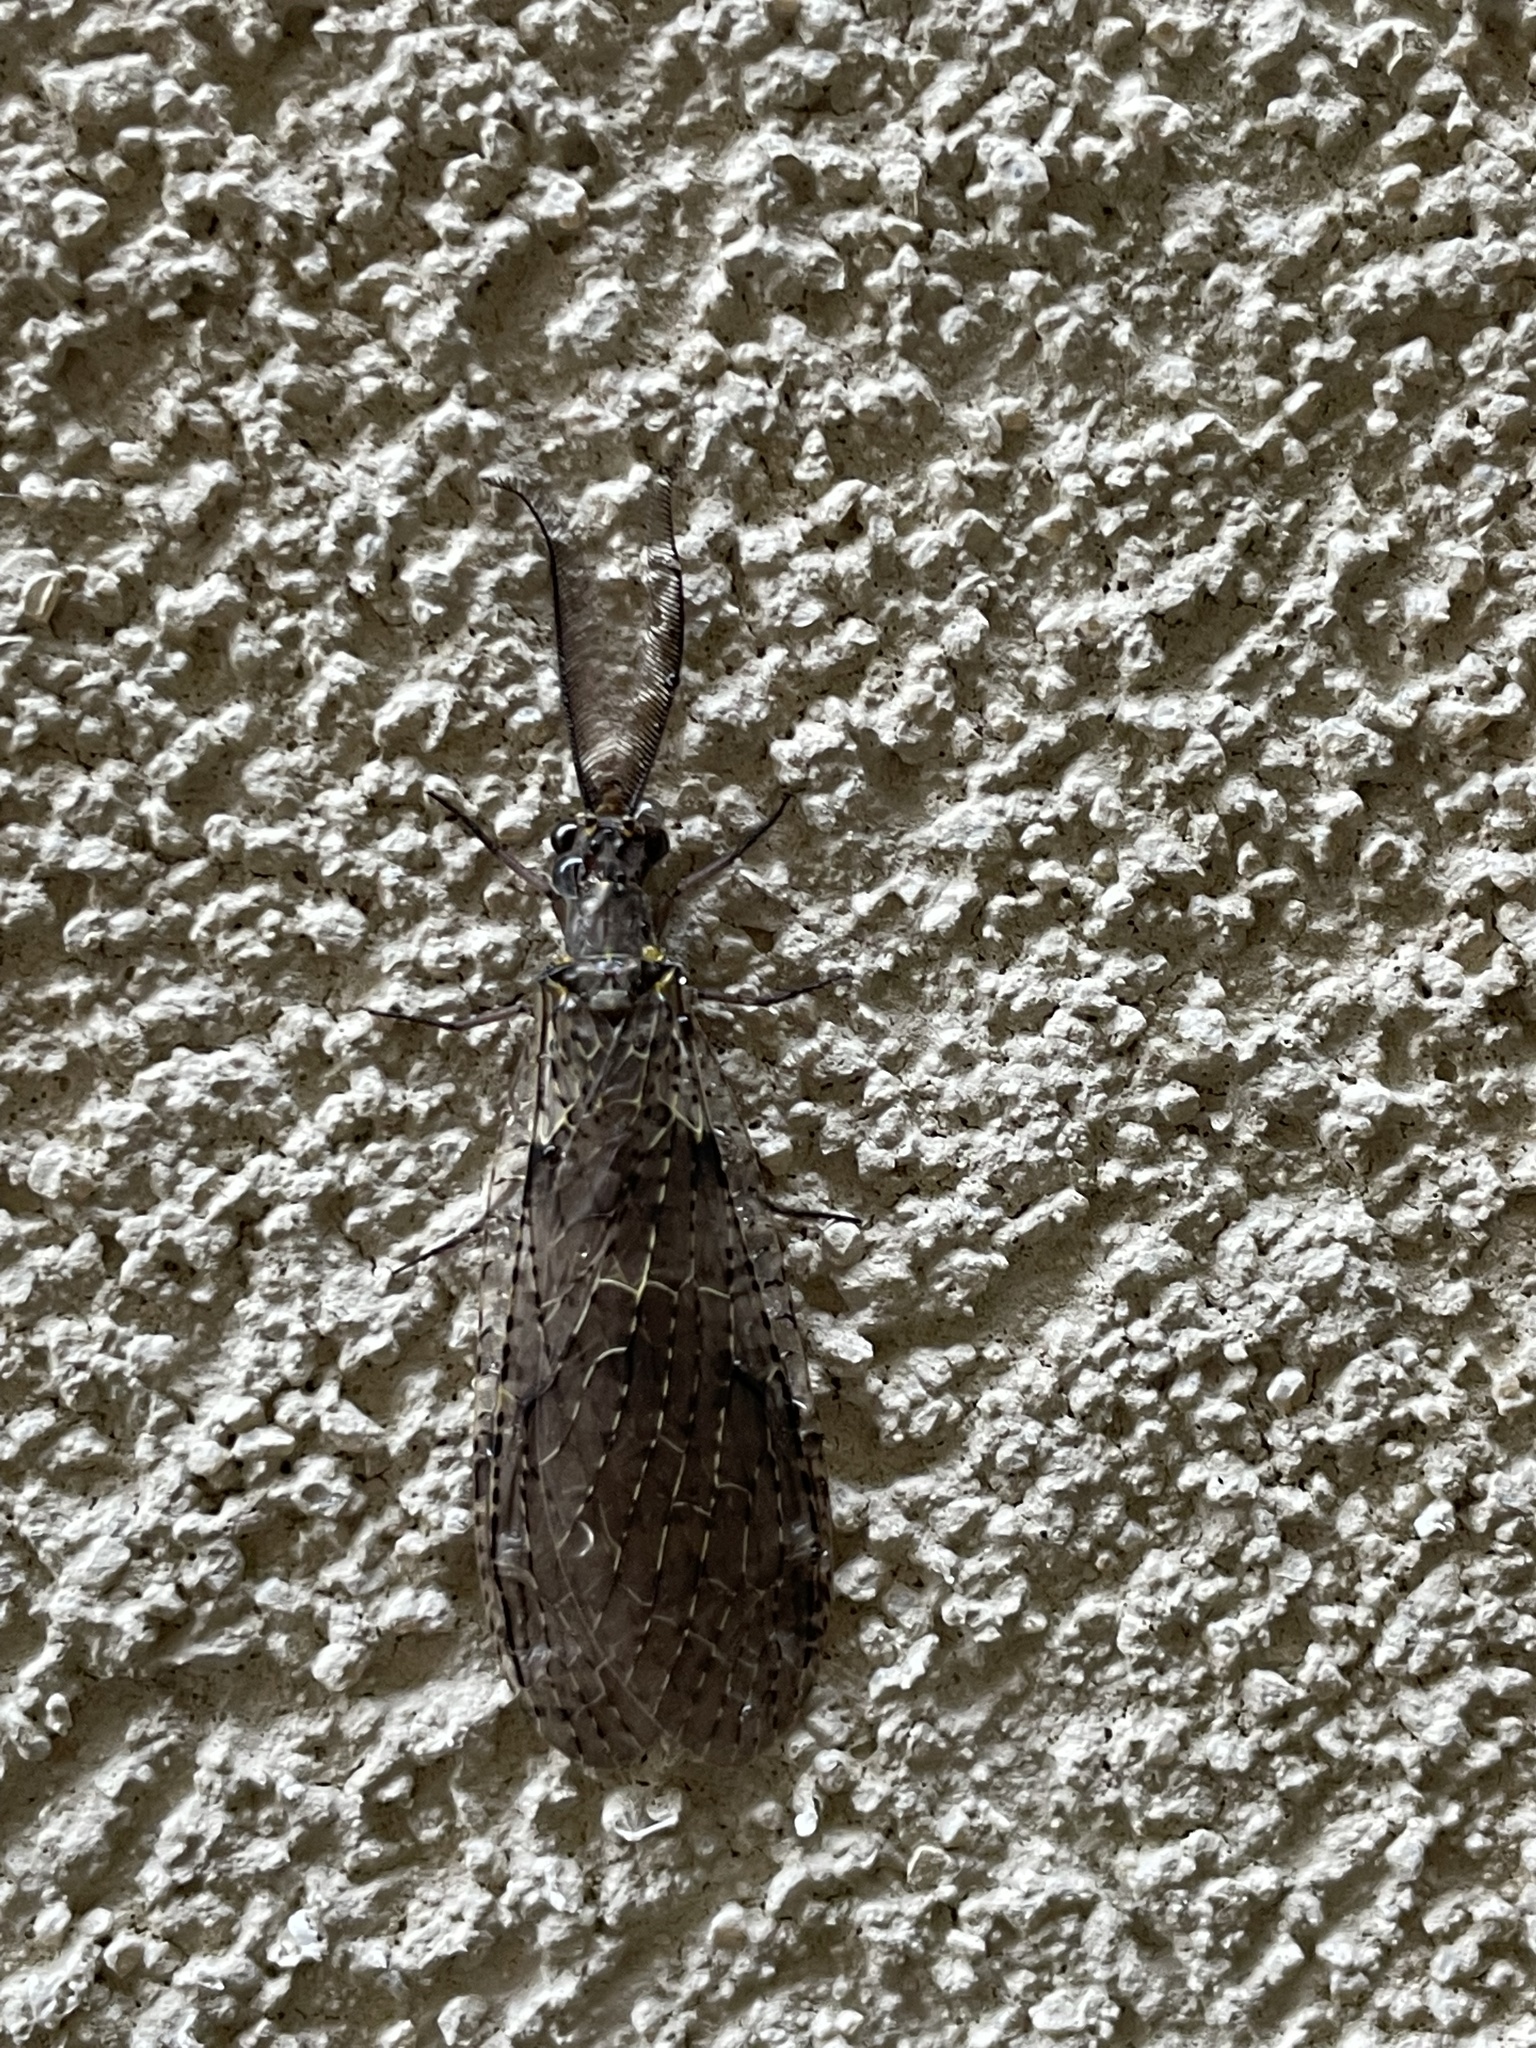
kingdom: Animalia
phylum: Arthropoda
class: Insecta
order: Megaloptera
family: Corydalidae
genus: Chauliodes
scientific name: Chauliodes rastricornis
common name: Spring fishfly
